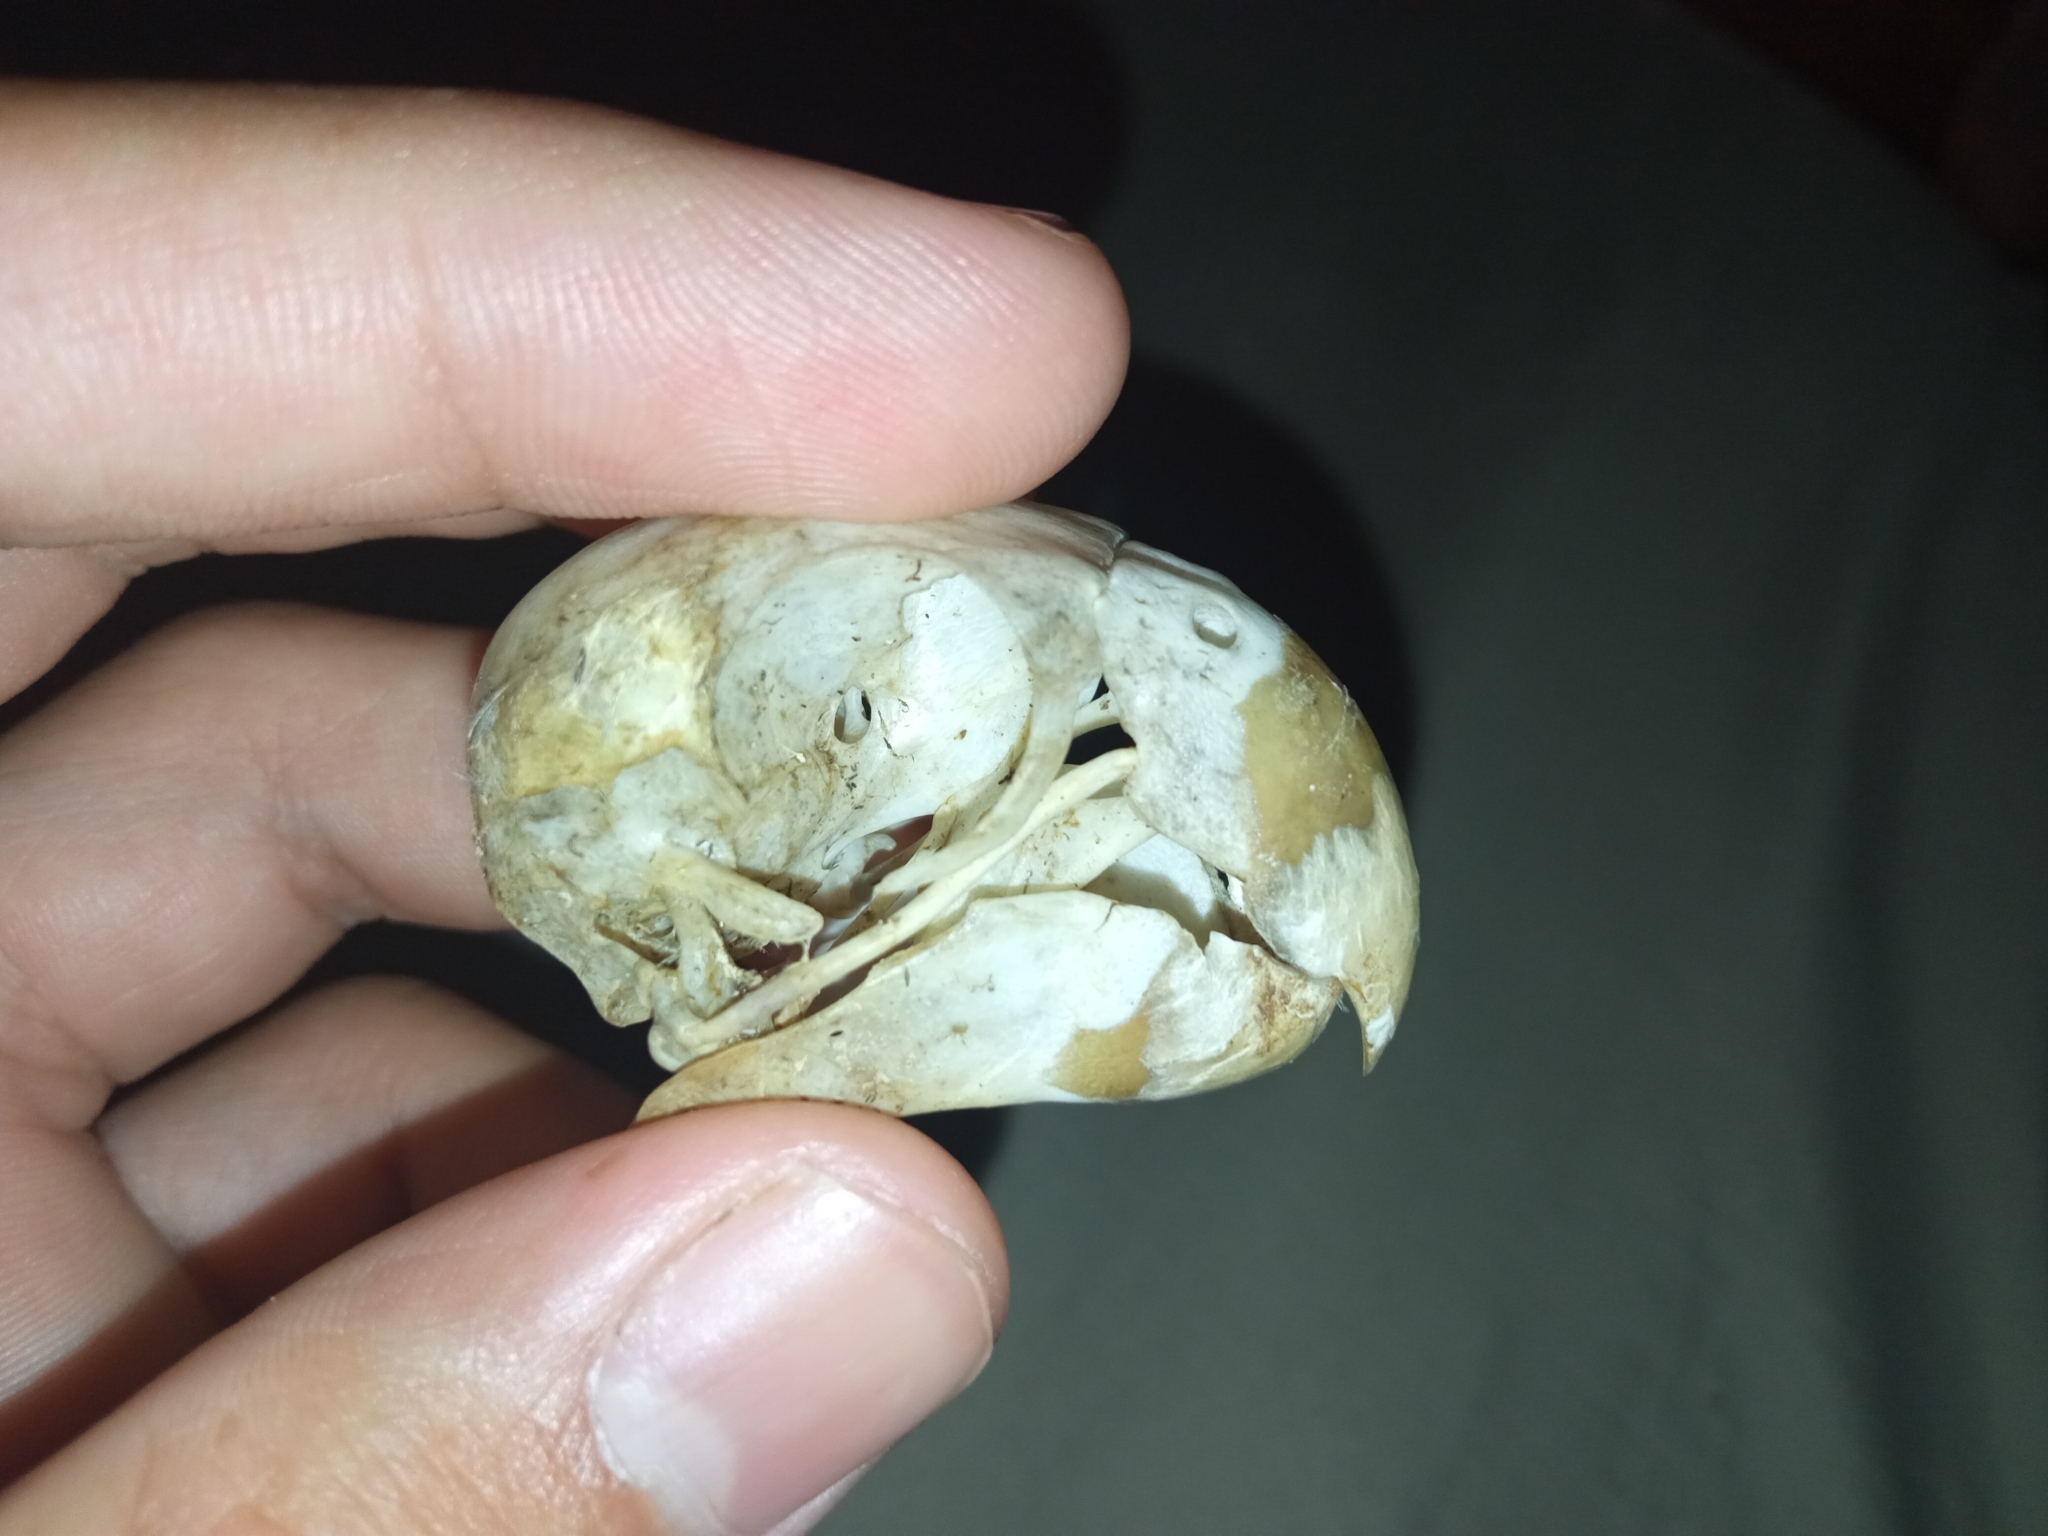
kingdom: Animalia
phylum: Chordata
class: Aves
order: Psittaciformes
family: Psittacidae
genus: Myiopsitta
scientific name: Myiopsitta monachus
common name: Monk parakeet
